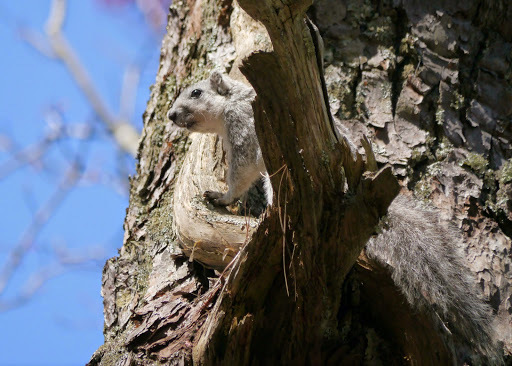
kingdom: Animalia
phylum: Chordata
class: Mammalia
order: Rodentia
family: Sciuridae
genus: Sciurus
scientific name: Sciurus niger
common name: Fox squirrel
